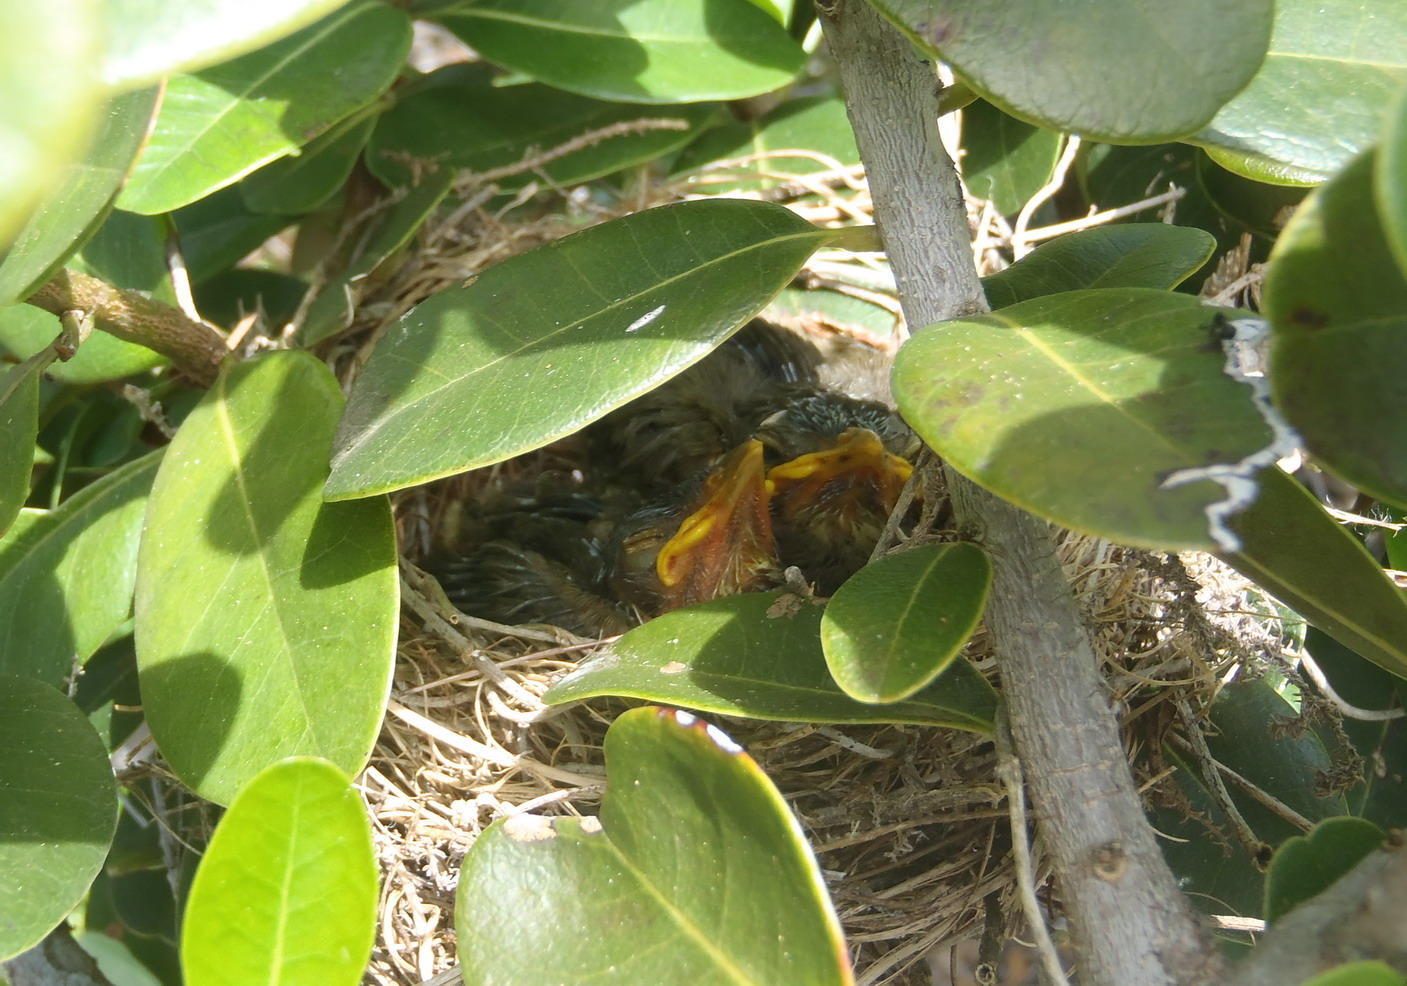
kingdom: Animalia
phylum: Chordata
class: Aves
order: Passeriformes
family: Turdidae
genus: Turdus
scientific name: Turdus olivaceus
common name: Olive thrush
